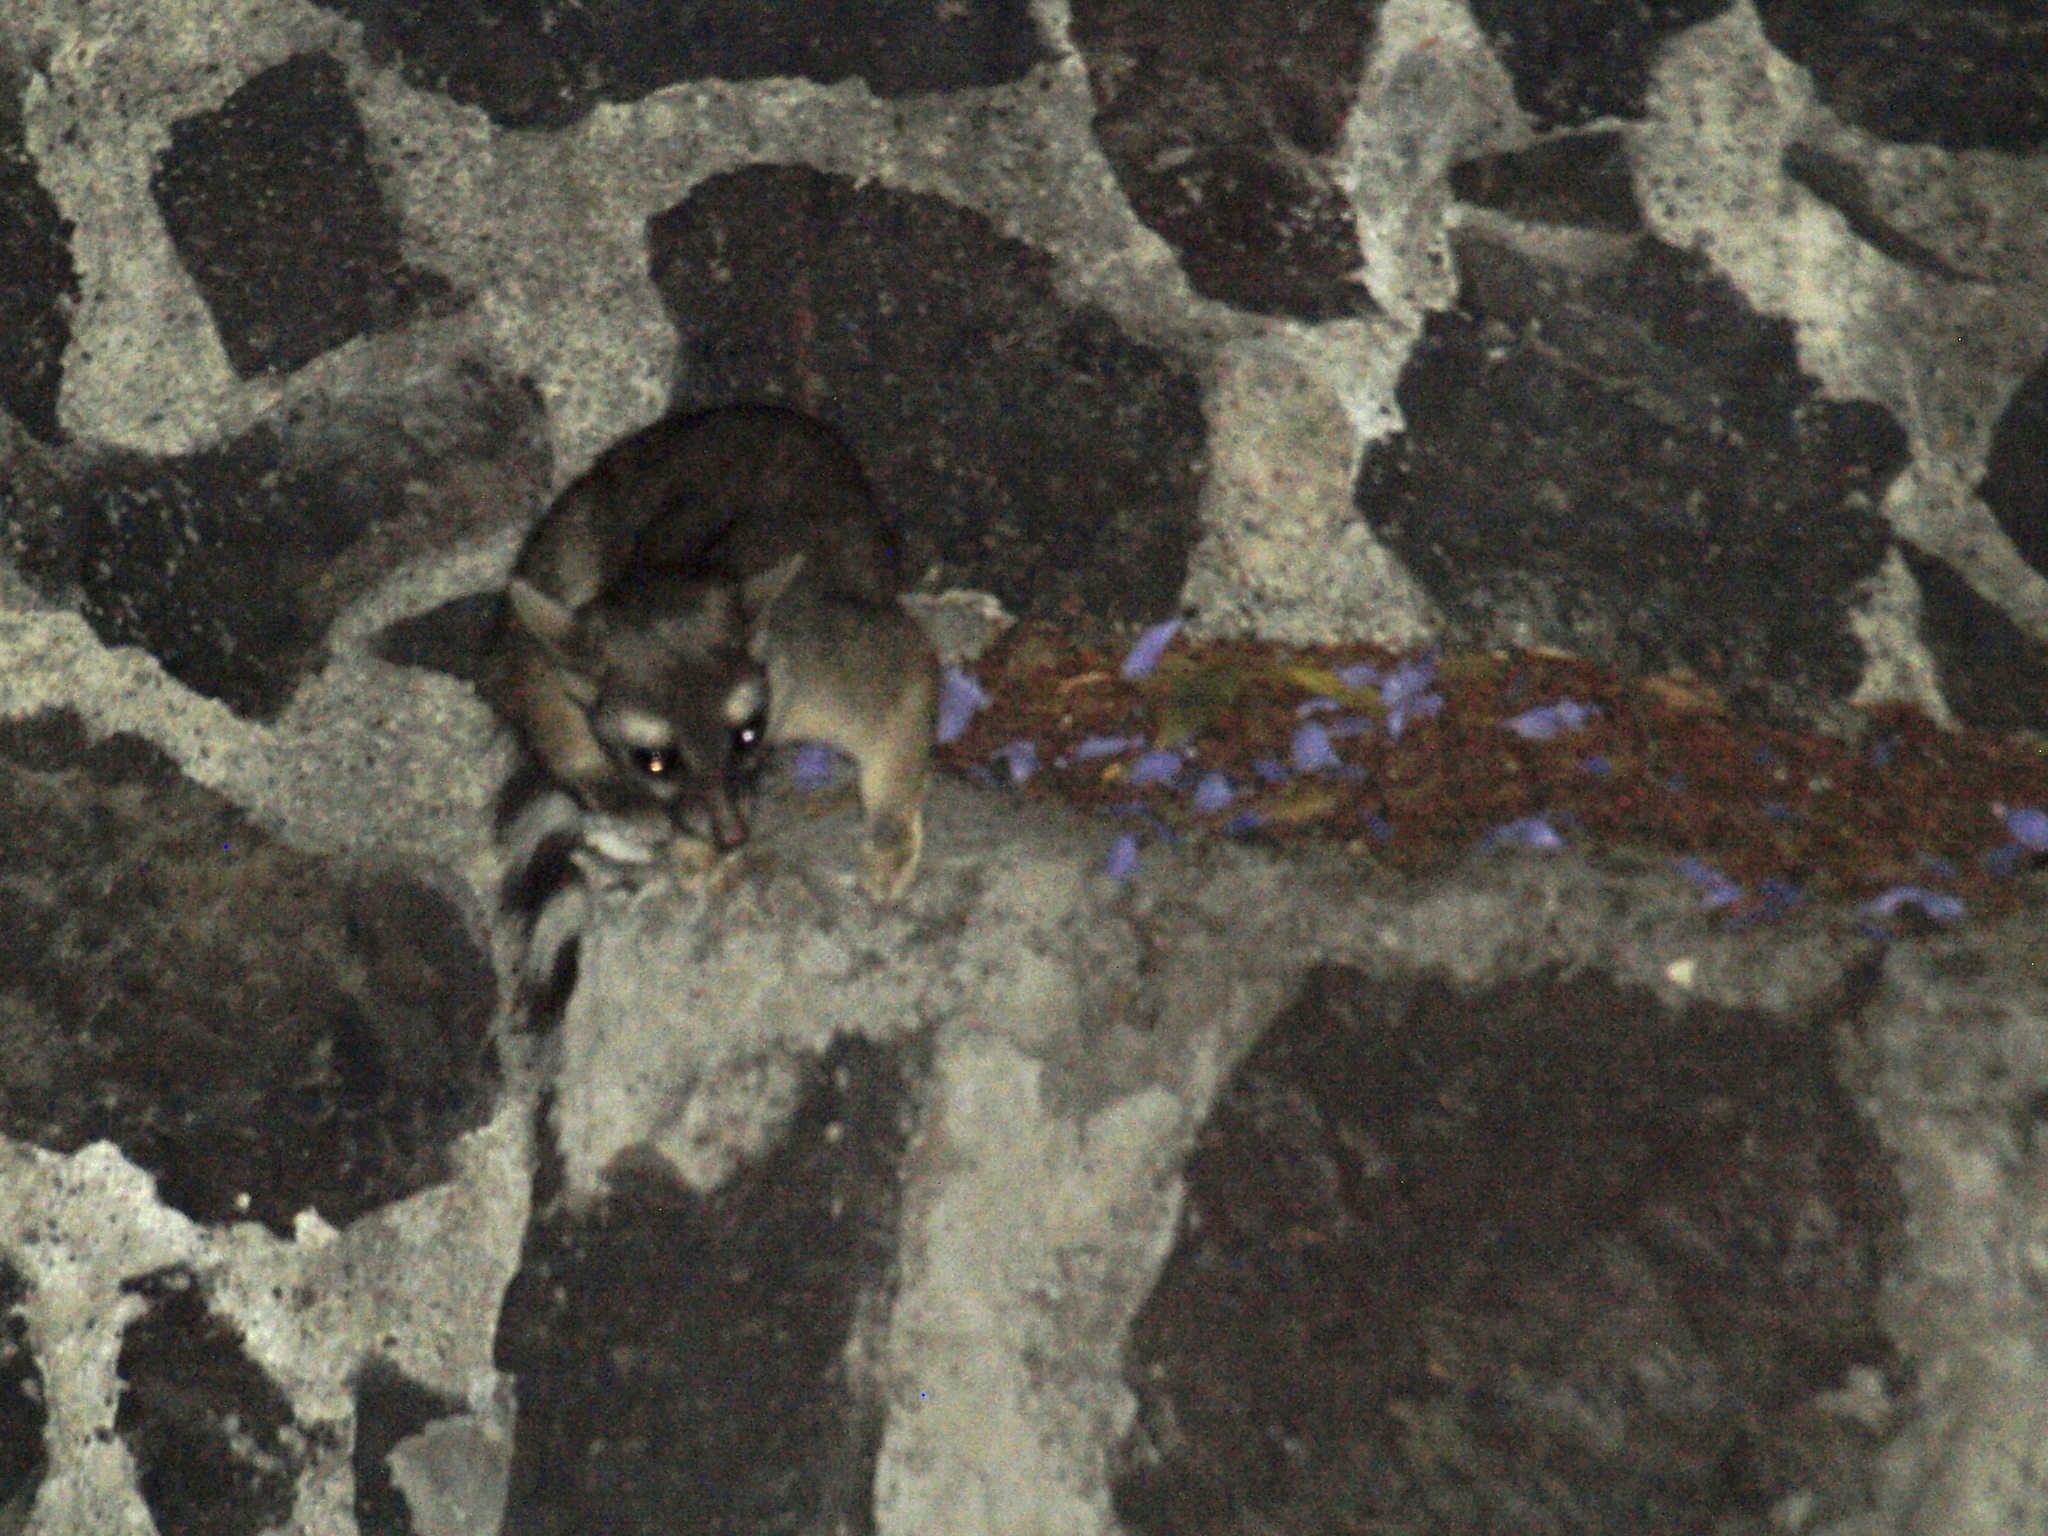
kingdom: Animalia
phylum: Chordata
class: Mammalia
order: Carnivora
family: Procyonidae
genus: Bassariscus
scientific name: Bassariscus astutus
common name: Ringtail
